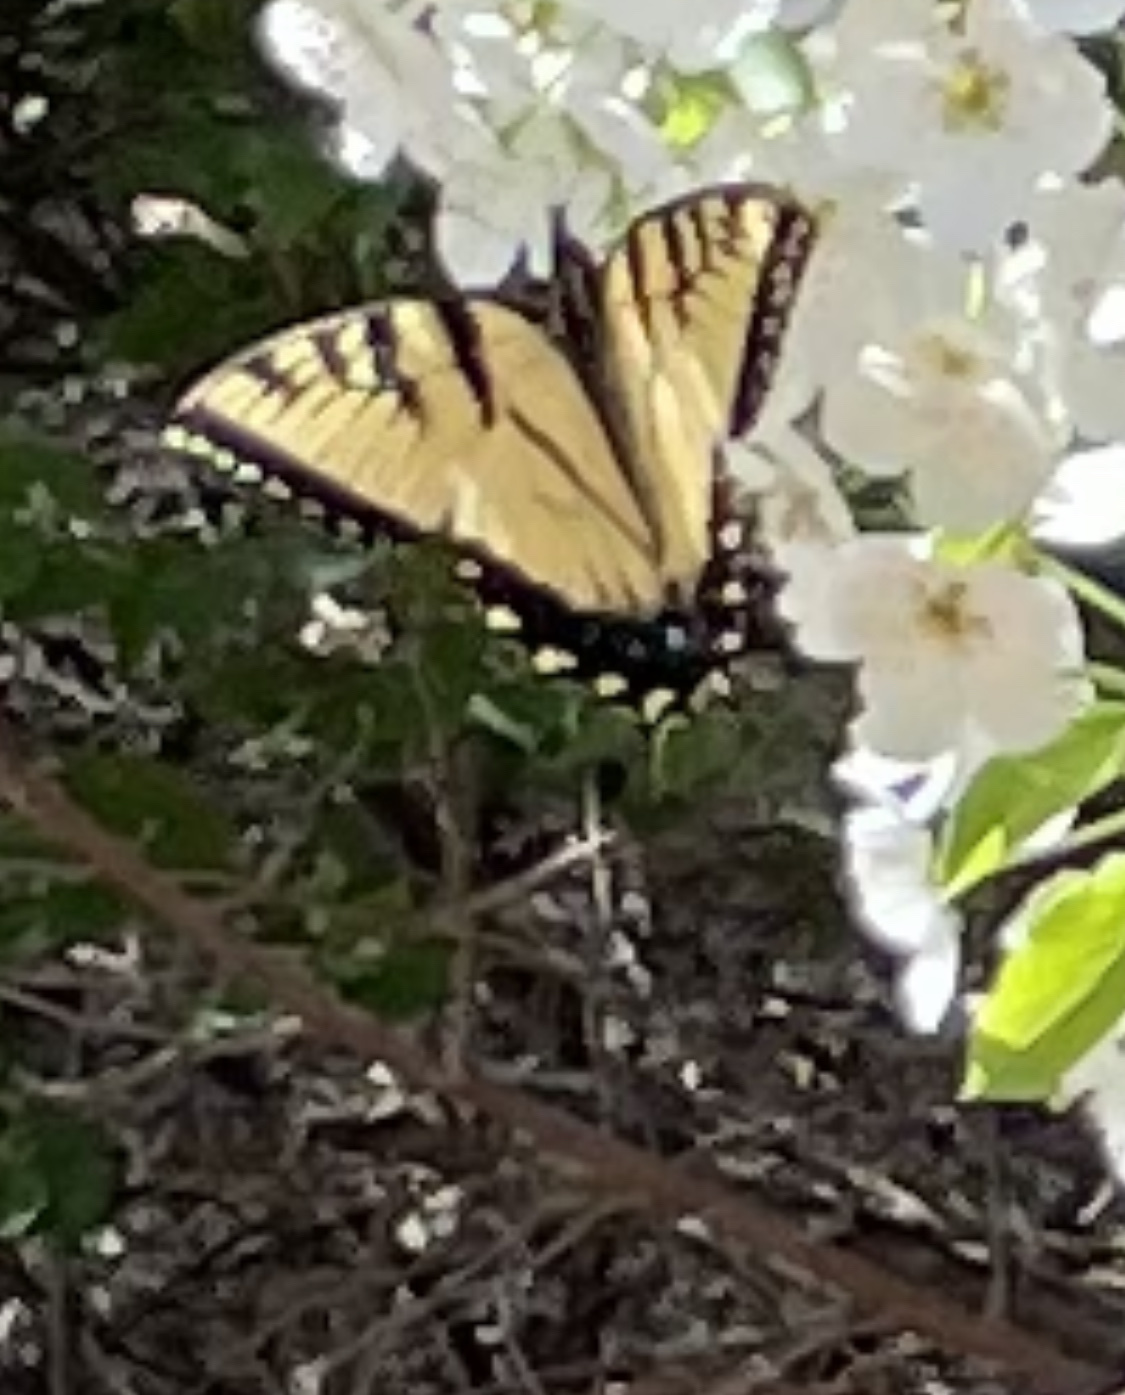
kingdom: Animalia
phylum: Arthropoda
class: Insecta
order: Lepidoptera
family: Papilionidae
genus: Papilio
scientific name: Papilio glaucus
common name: Tiger swallowtail
